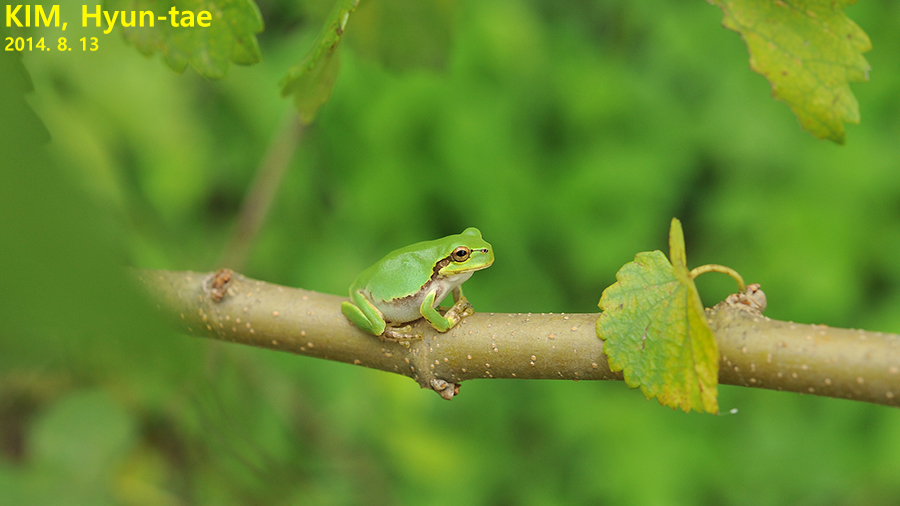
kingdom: Animalia
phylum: Chordata
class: Amphibia
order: Anura
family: Hylidae
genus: Dryophytes
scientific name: Dryophytes japonicus
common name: Japanese treefrog
